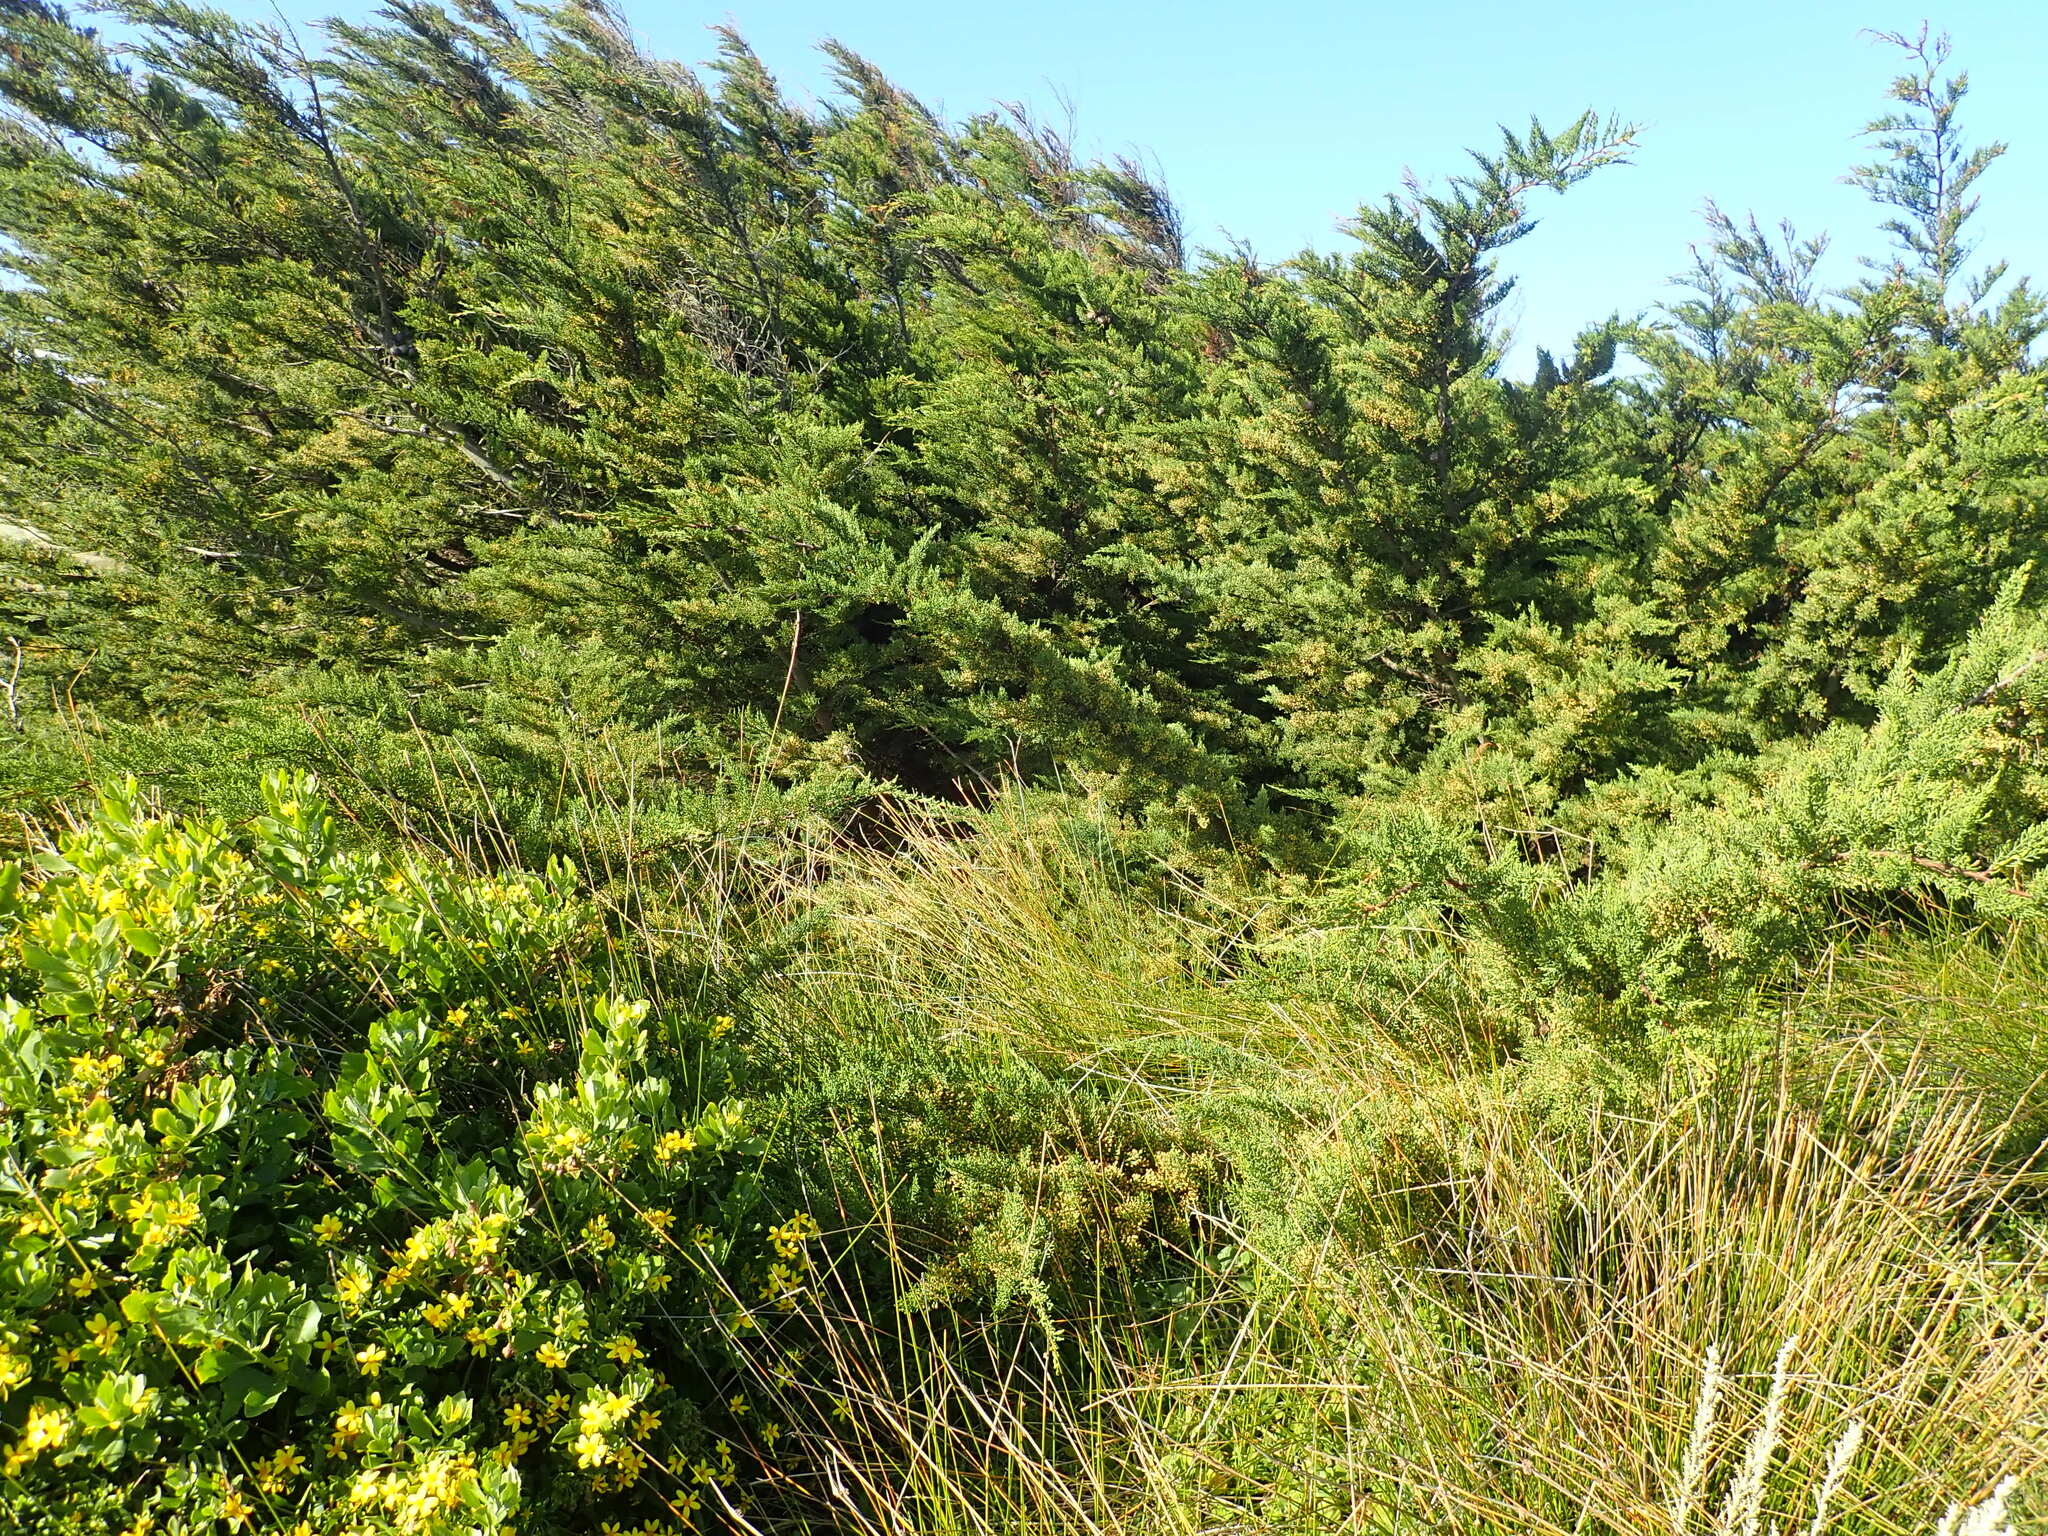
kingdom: Plantae
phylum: Tracheophyta
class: Magnoliopsida
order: Asterales
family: Asteraceae
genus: Osteospermum
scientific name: Osteospermum moniliferum
